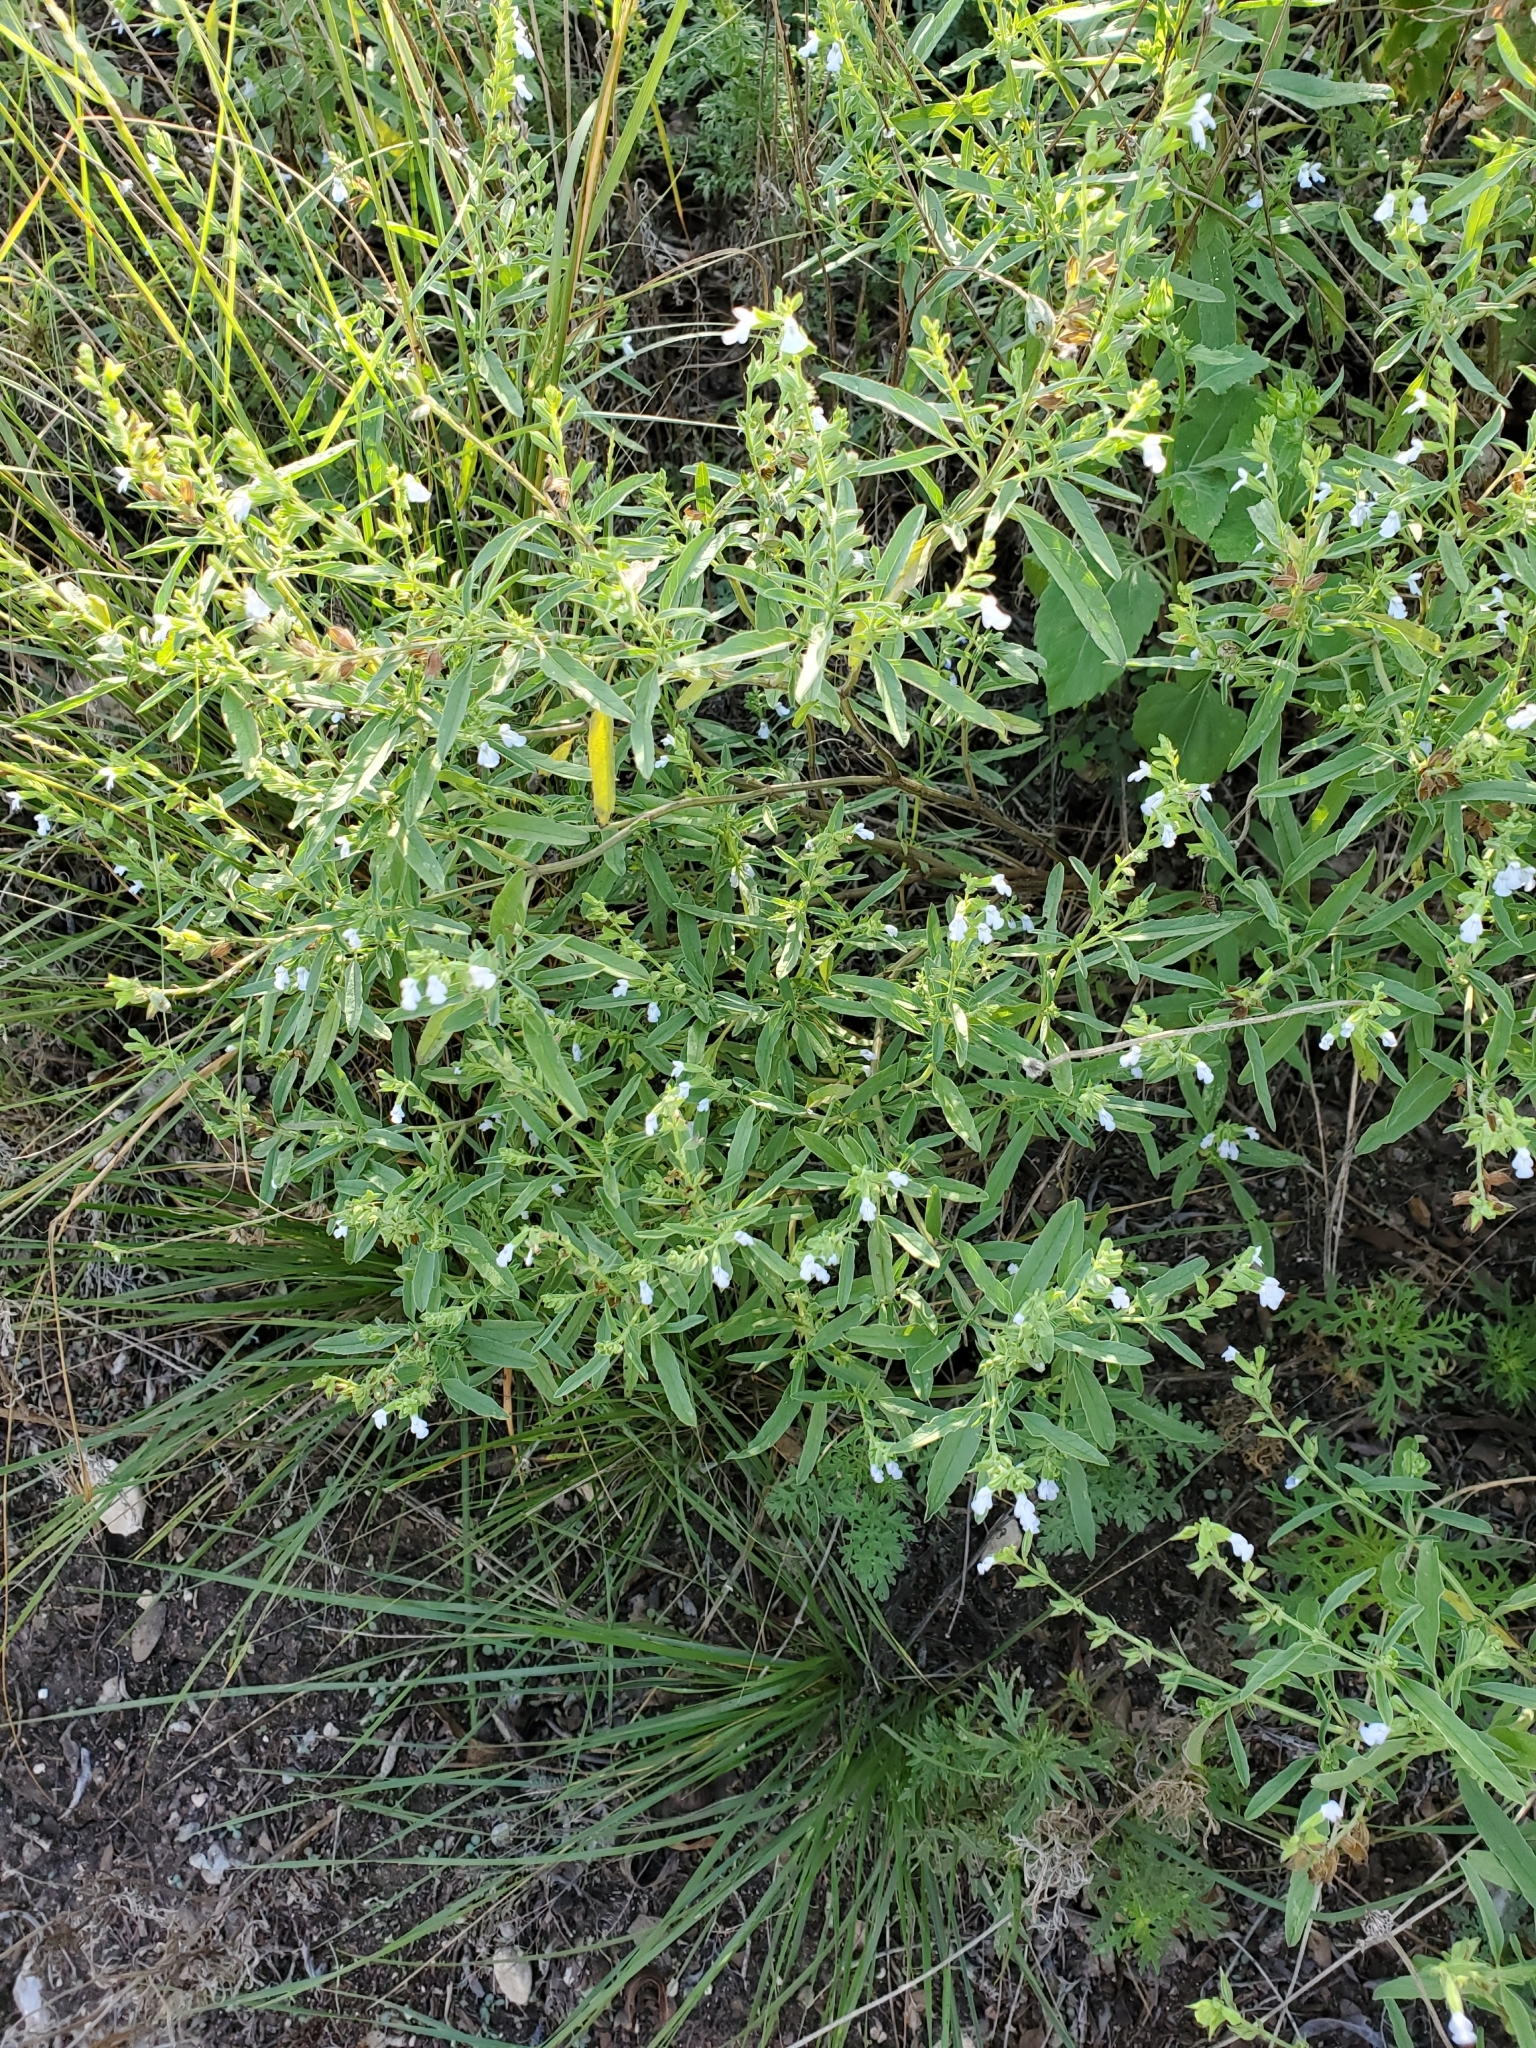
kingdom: Plantae
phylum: Tracheophyta
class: Magnoliopsida
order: Lamiales
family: Lamiaceae
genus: Salvia
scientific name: Salvia reflexa
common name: Mintweed
